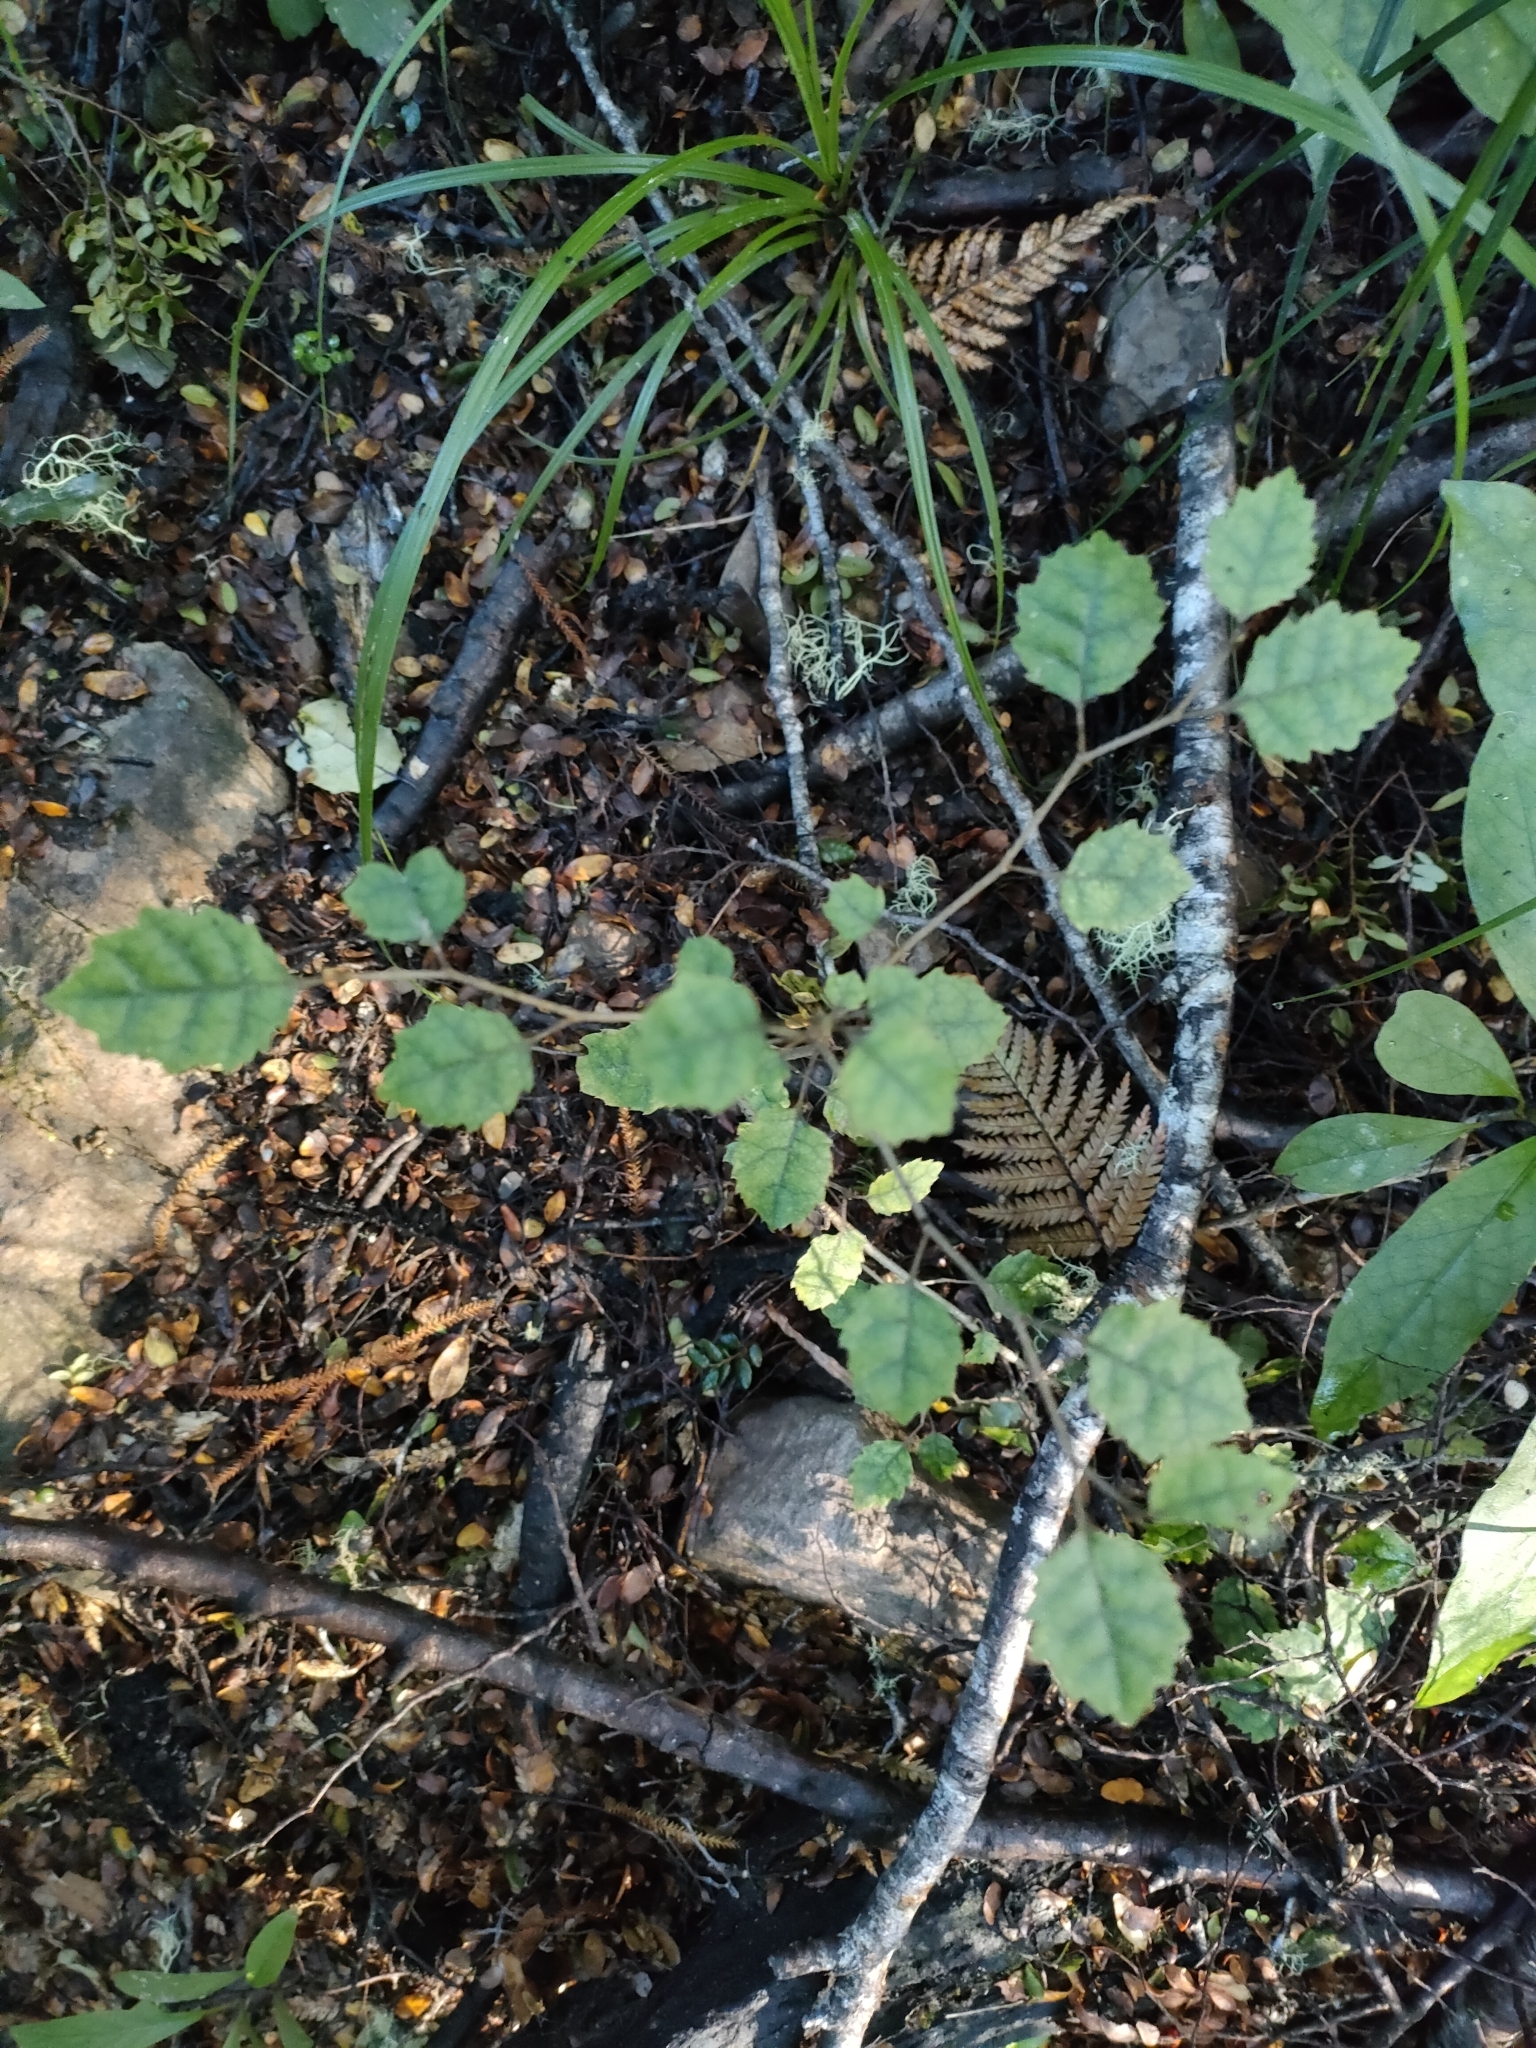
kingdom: Plantae
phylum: Tracheophyta
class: Magnoliopsida
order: Asterales
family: Rousseaceae
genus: Carpodetus
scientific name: Carpodetus serratus
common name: White mapau
